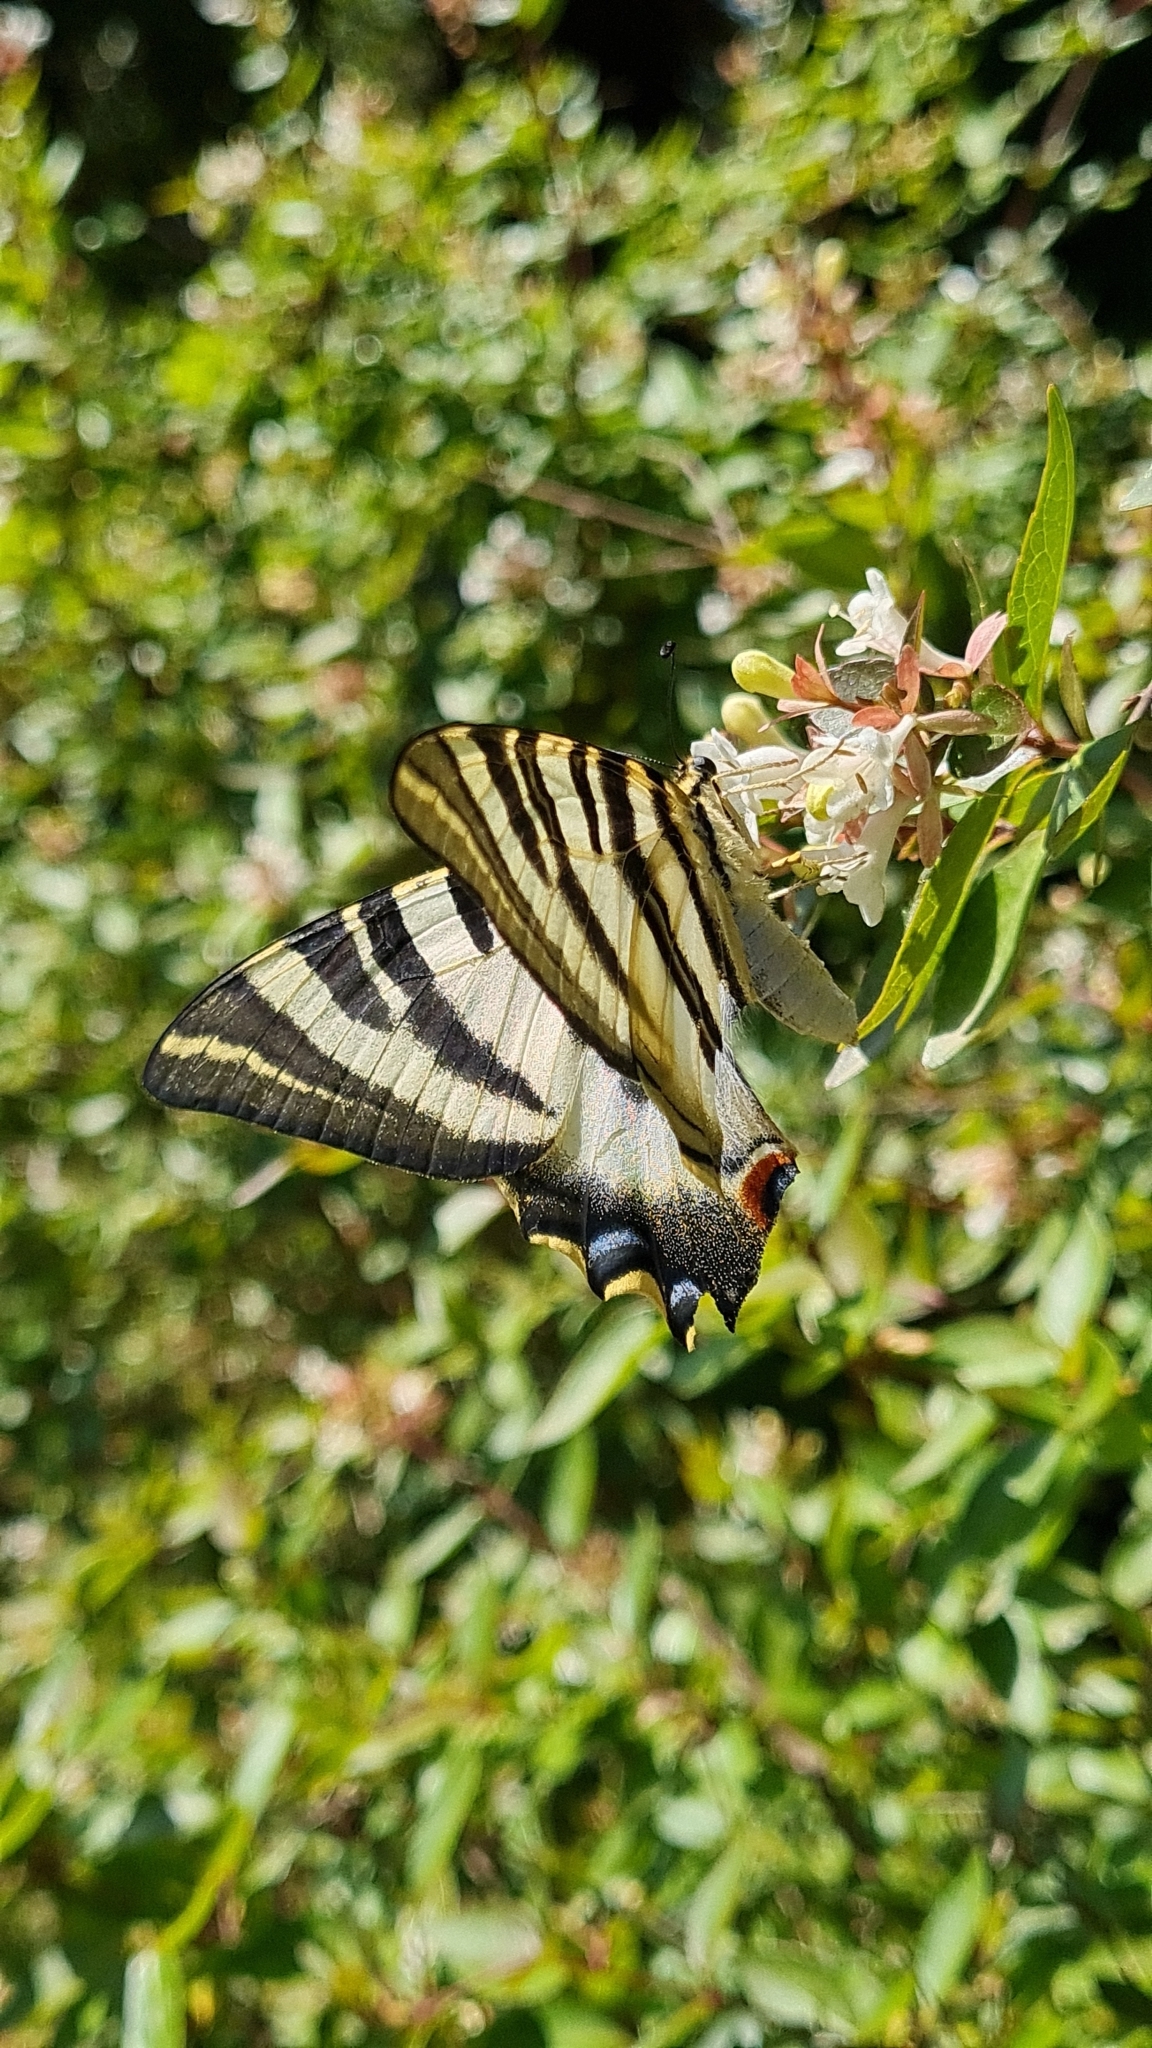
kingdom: Animalia
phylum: Arthropoda
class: Insecta
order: Lepidoptera
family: Papilionidae
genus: Iphiclides
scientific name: Iphiclides feisthamelii
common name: Iberian scarce swallowtail
